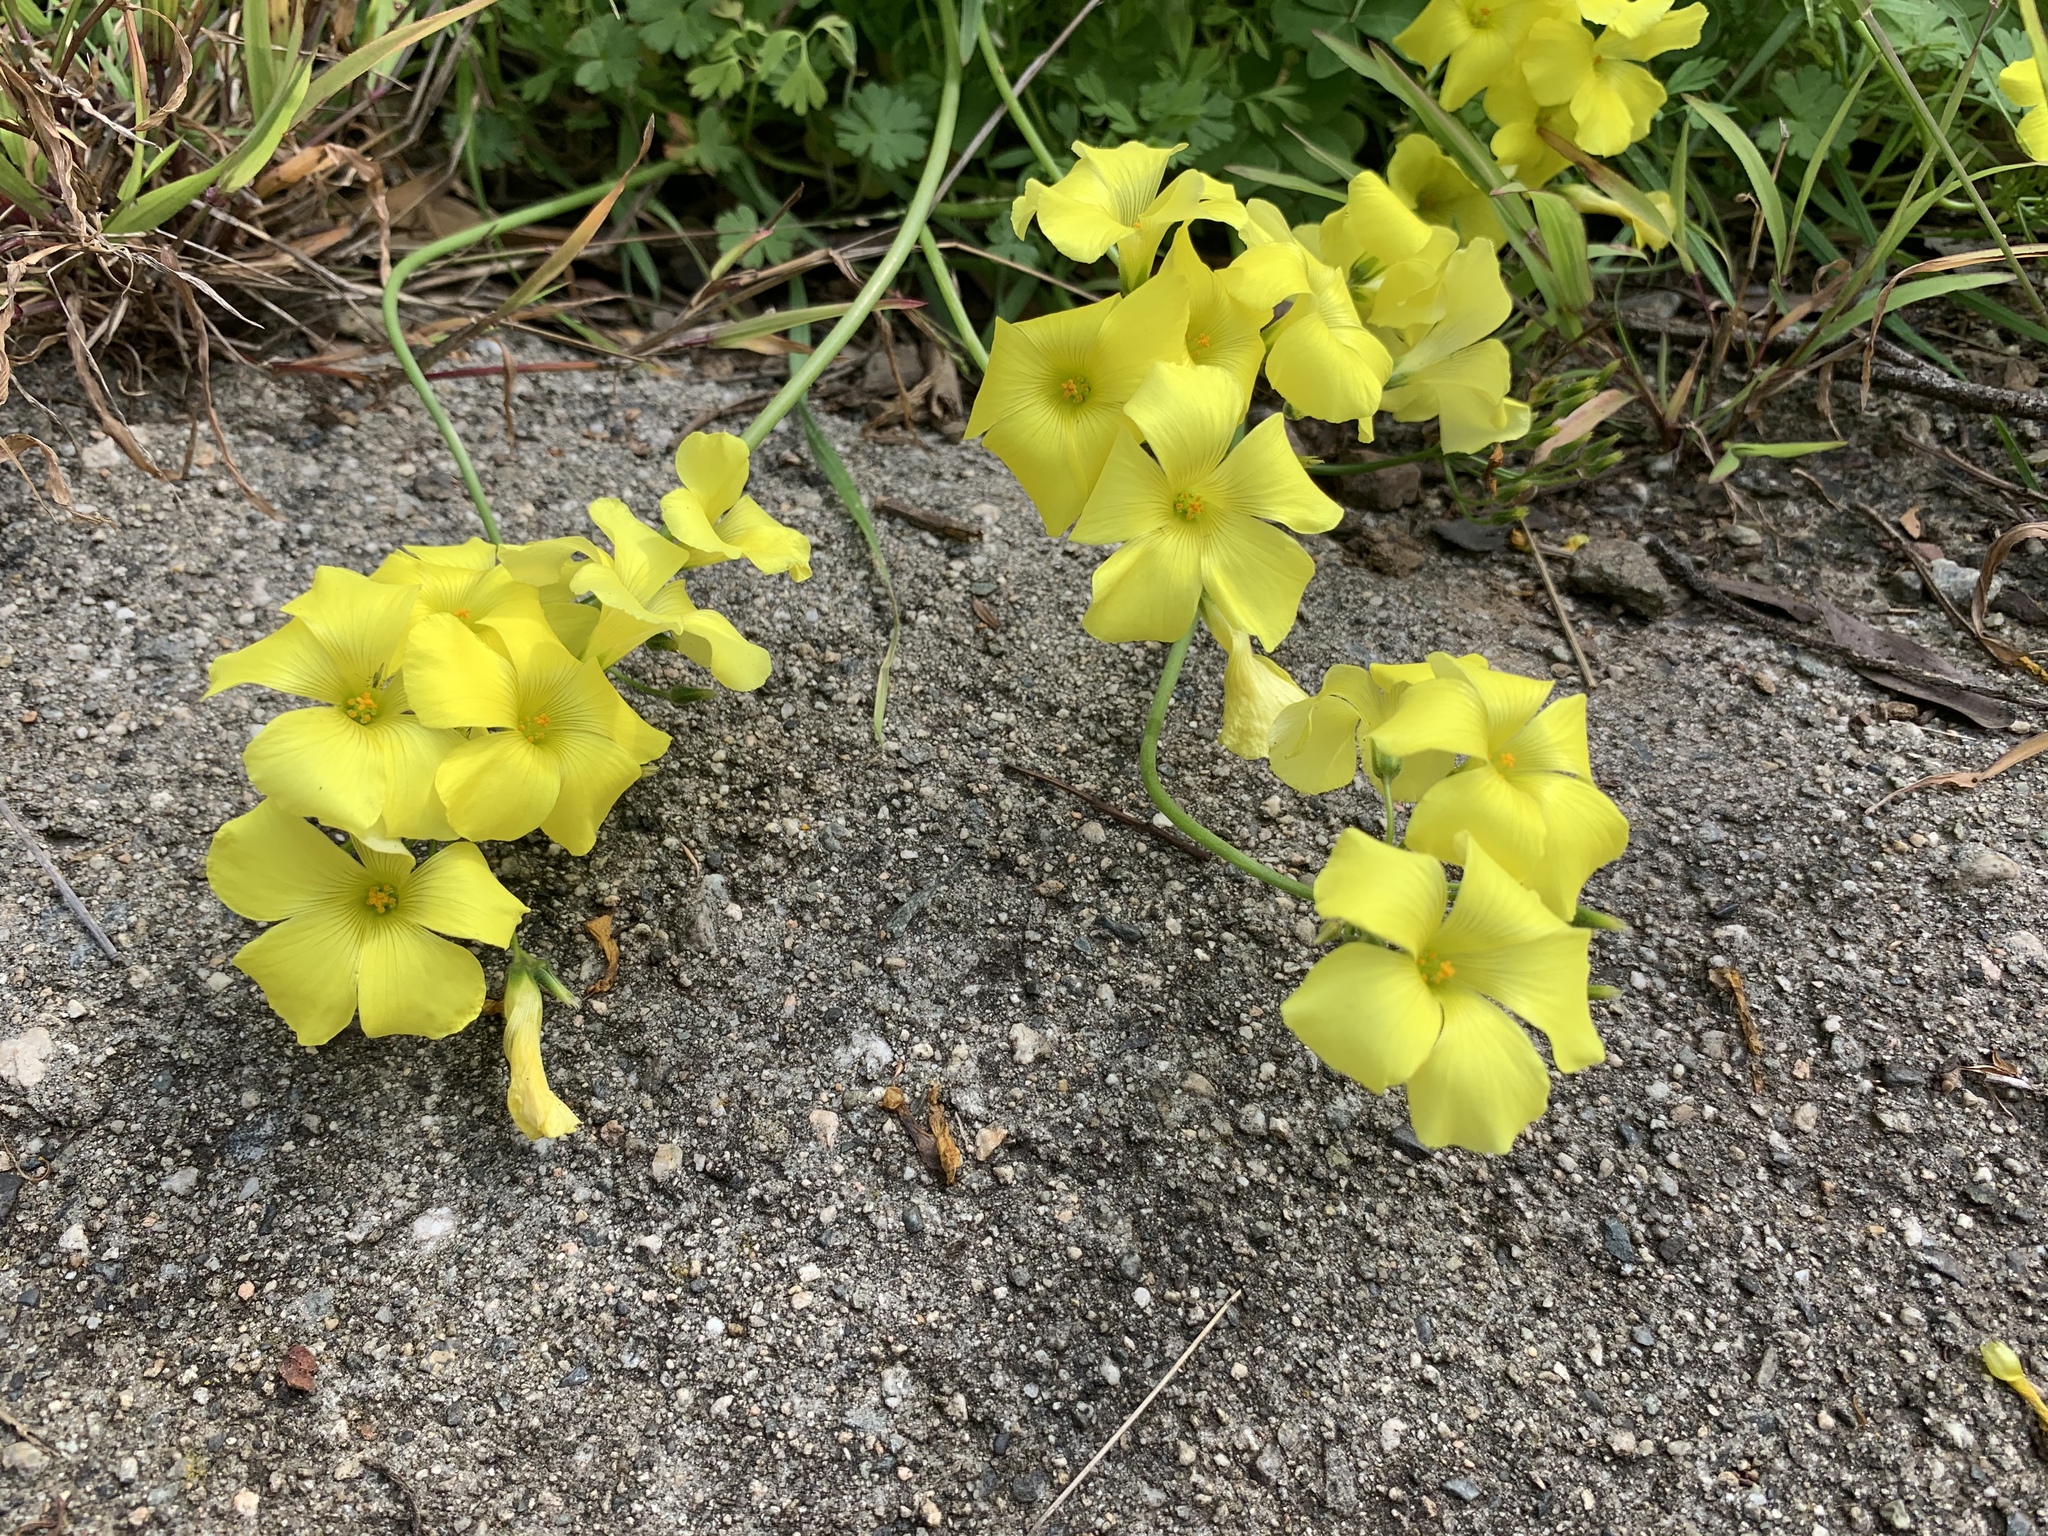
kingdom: Plantae
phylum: Tracheophyta
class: Magnoliopsida
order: Oxalidales
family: Oxalidaceae
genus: Oxalis
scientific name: Oxalis pes-caprae
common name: Bermuda-buttercup
